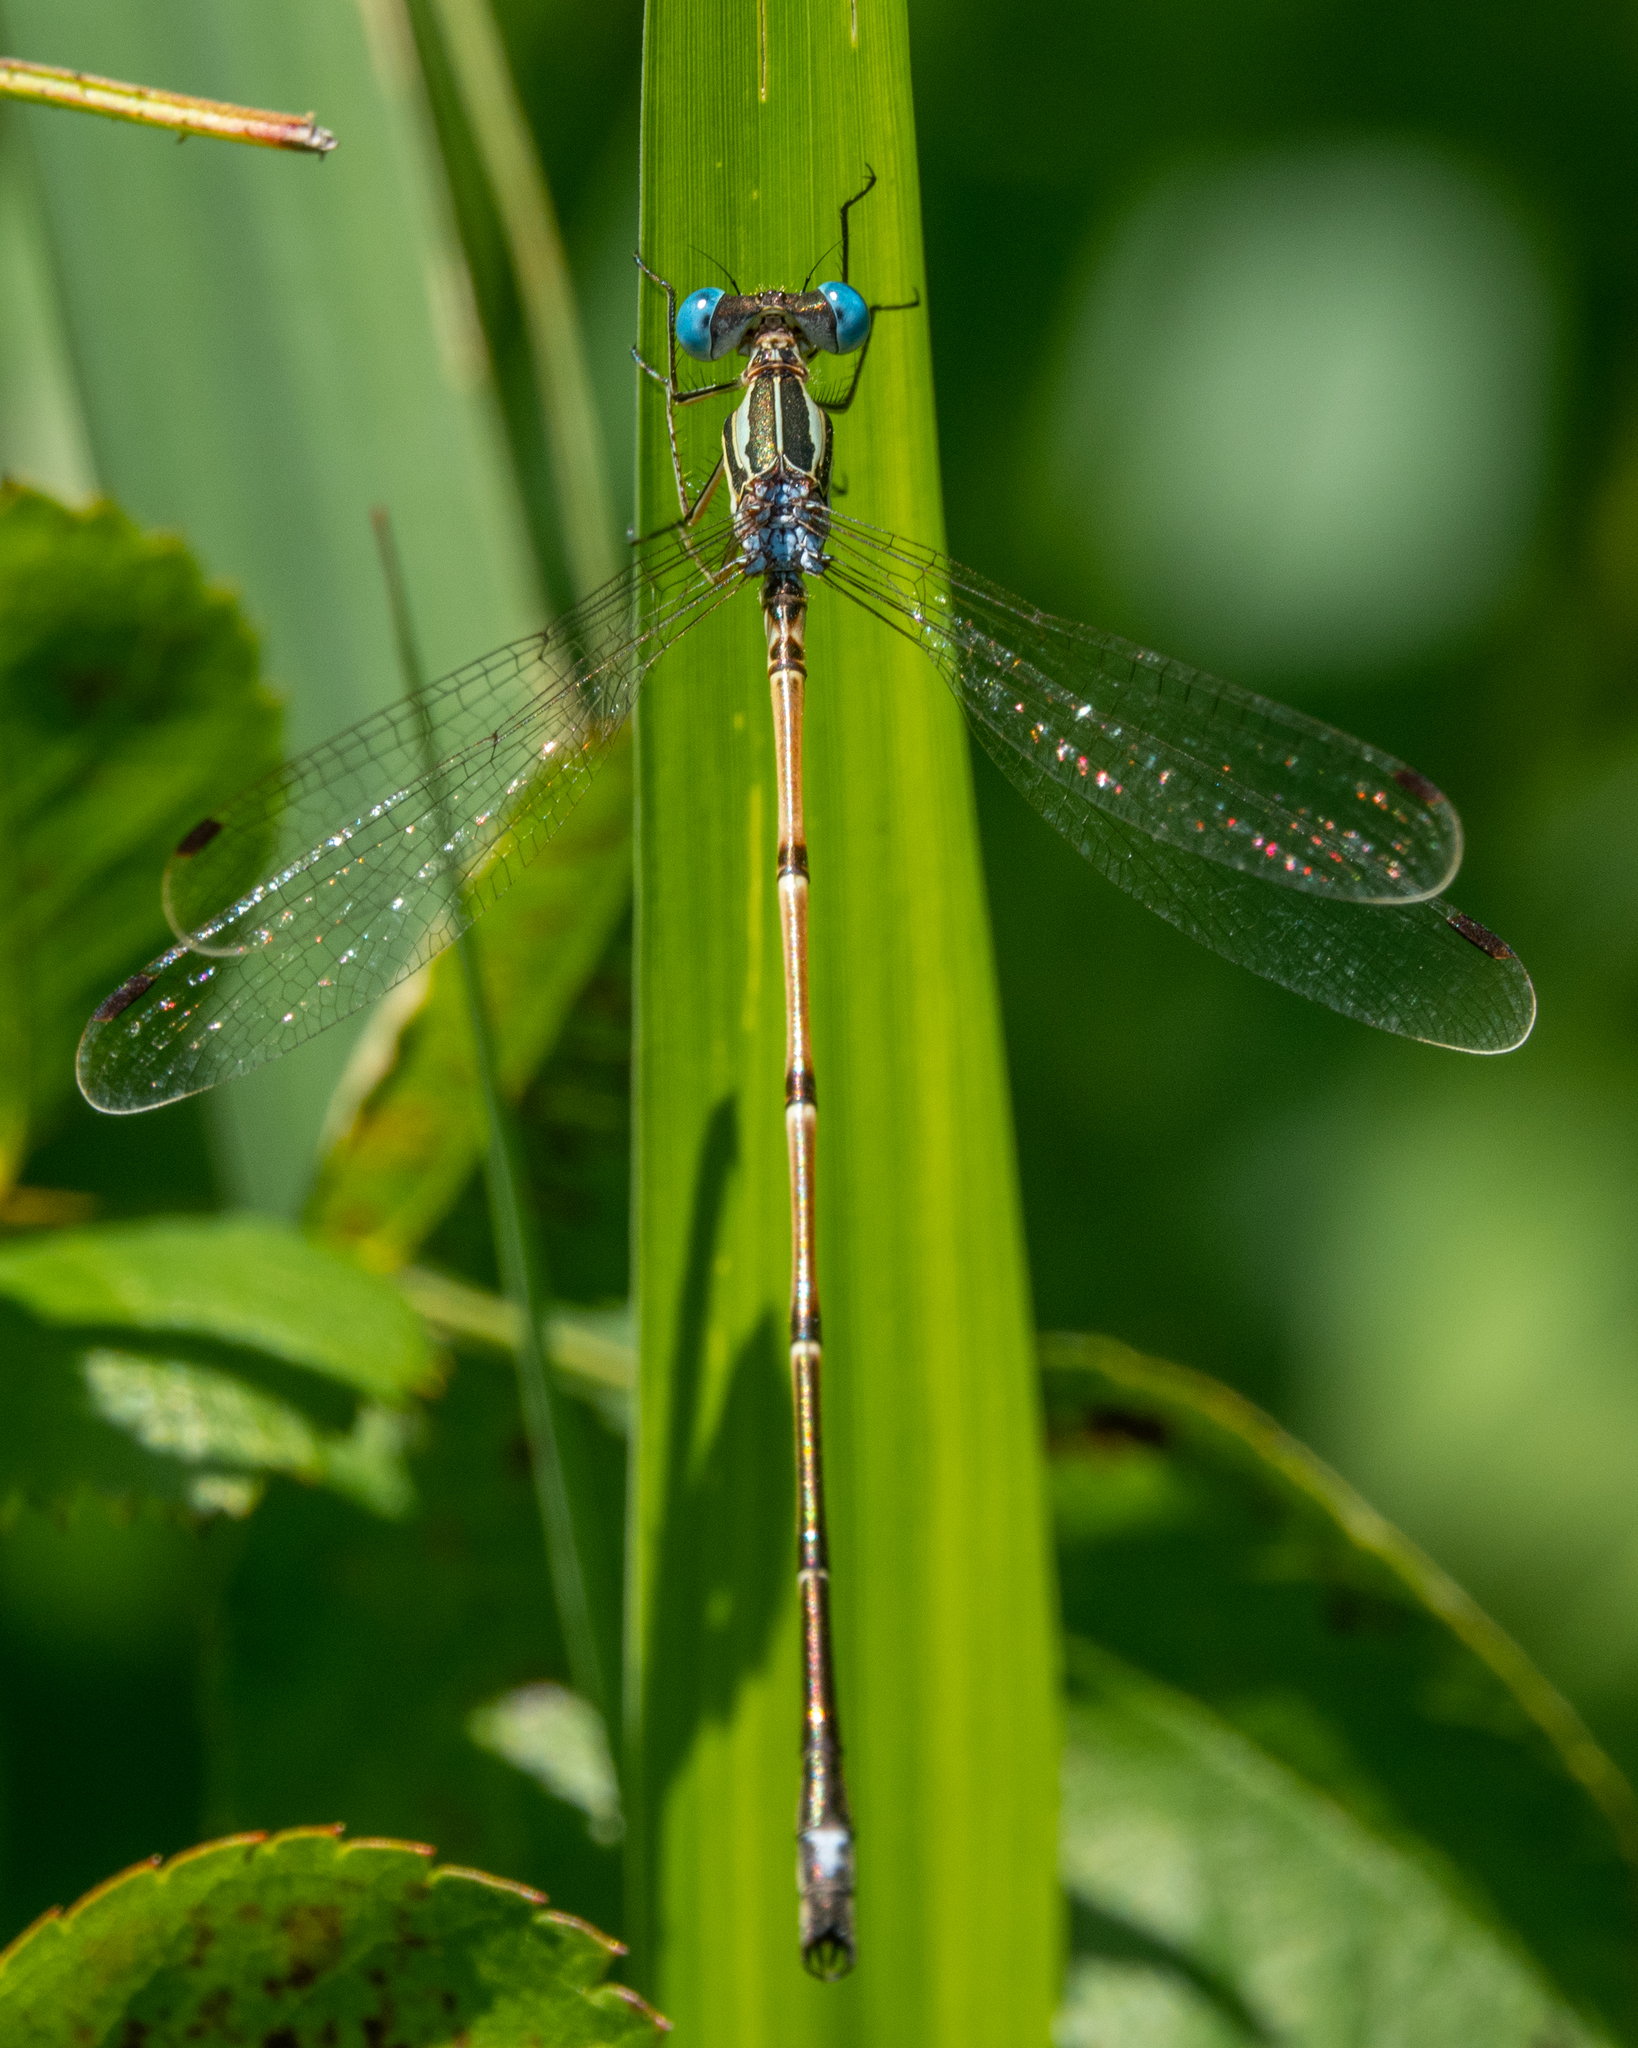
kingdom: Animalia
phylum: Arthropoda
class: Insecta
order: Odonata
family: Lestidae
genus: Lestes
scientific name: Lestes rectangularis
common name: Slender spreadwing
